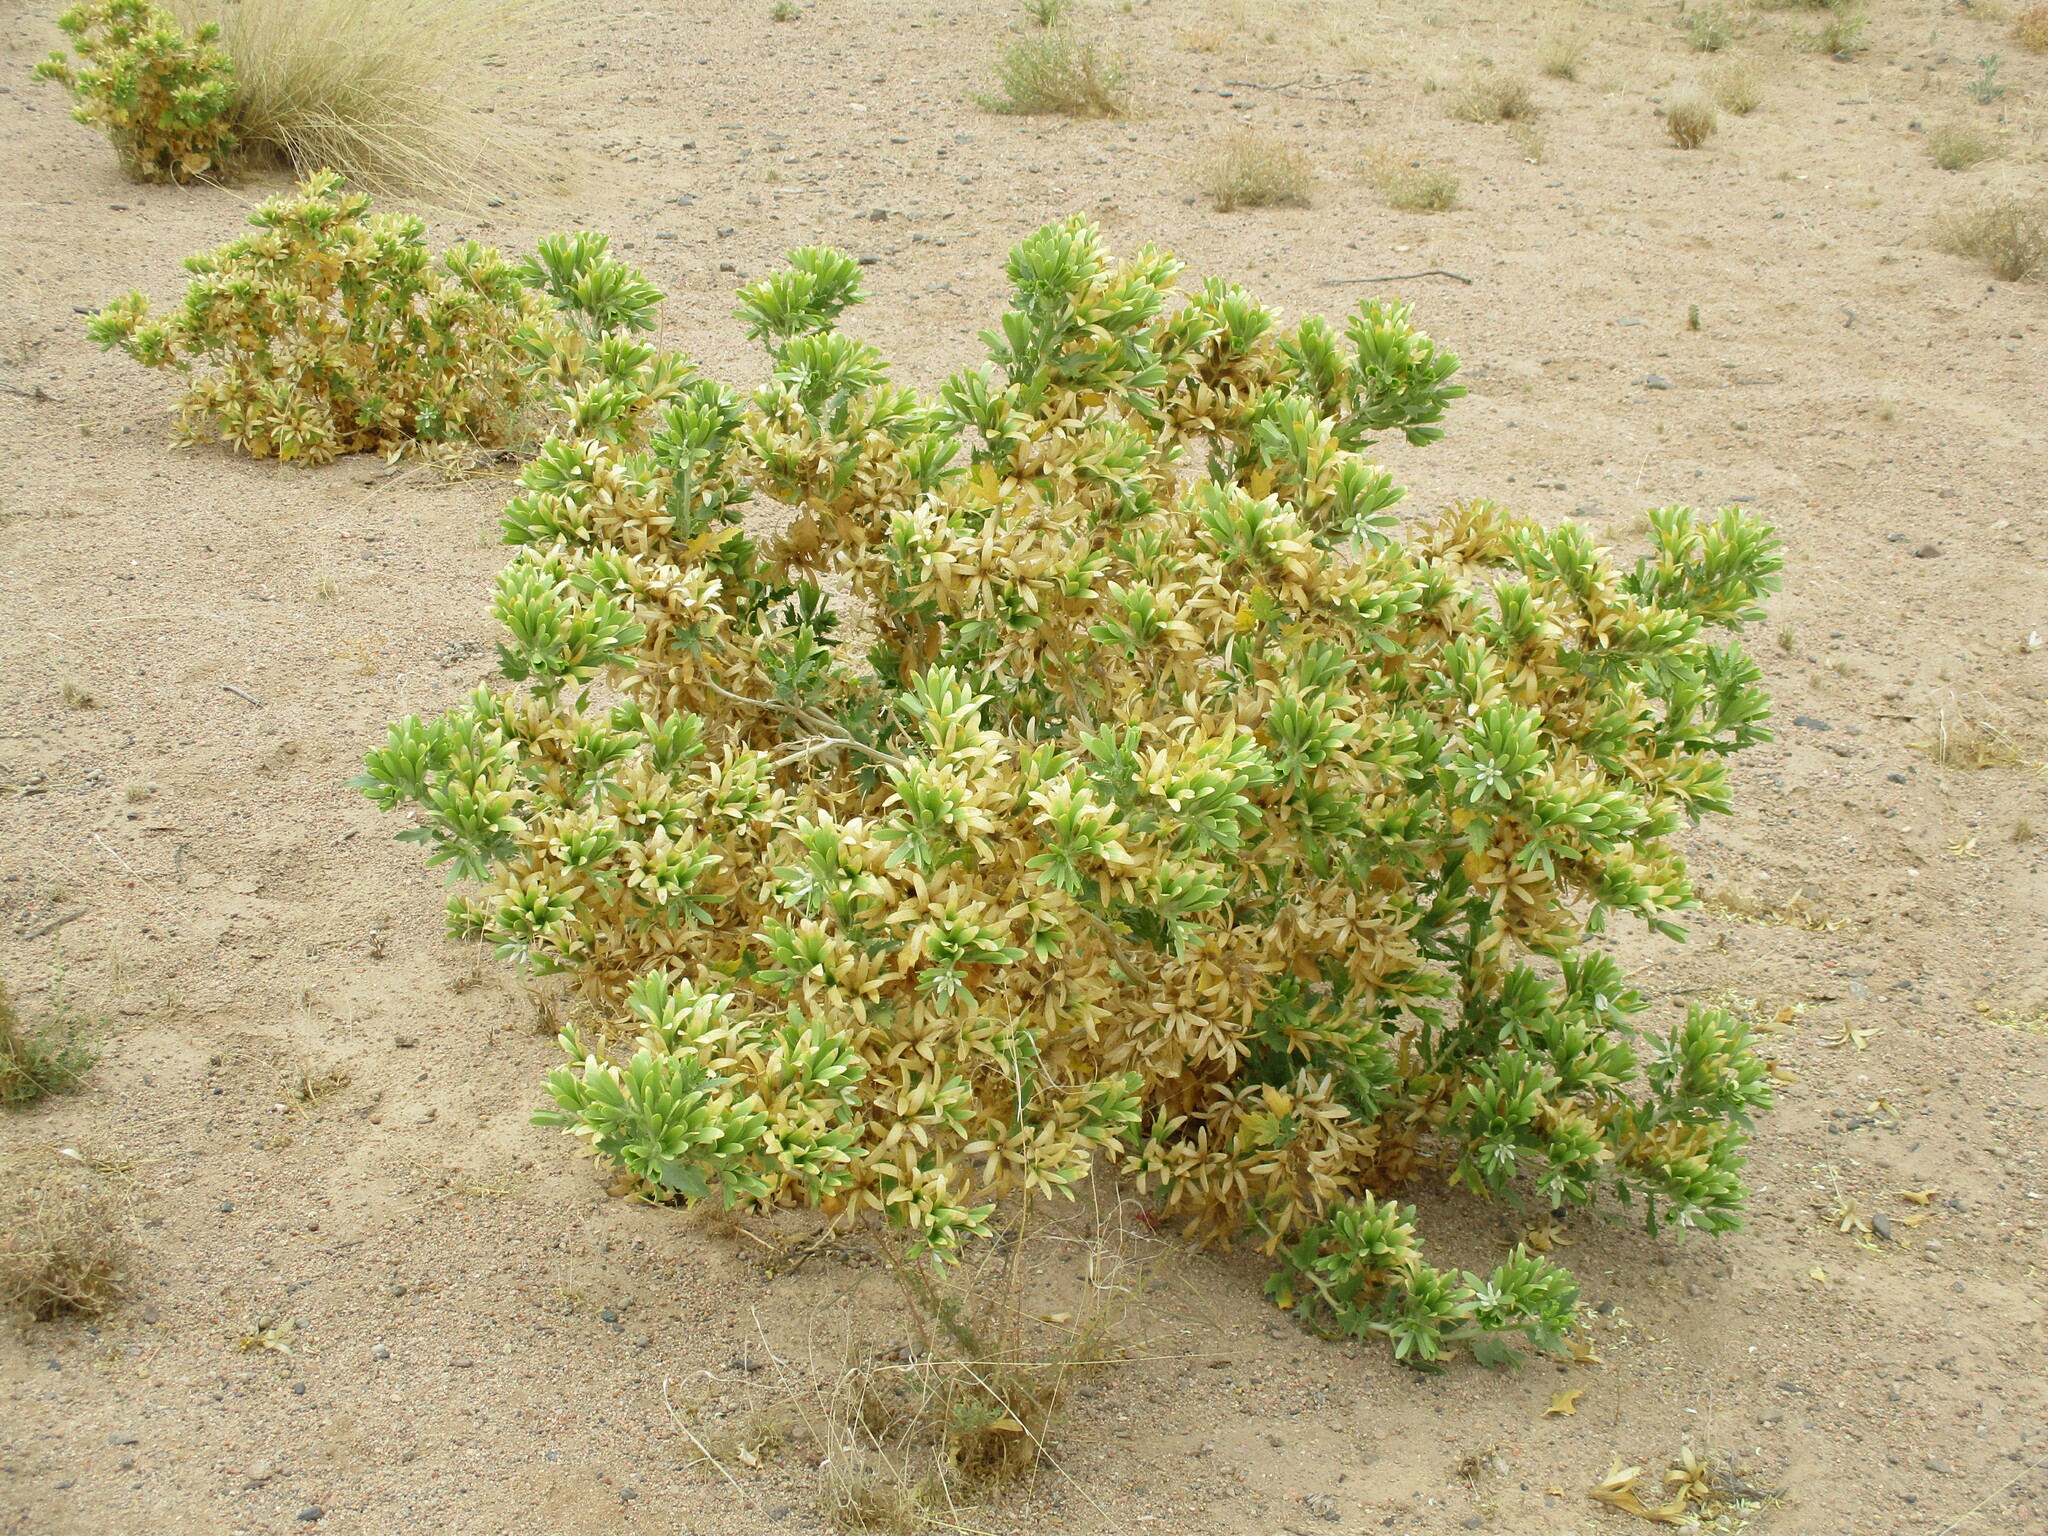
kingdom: Plantae
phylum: Tracheophyta
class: Magnoliopsida
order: Cornales
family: Loasaceae
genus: Kissenia
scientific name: Kissenia capensis
